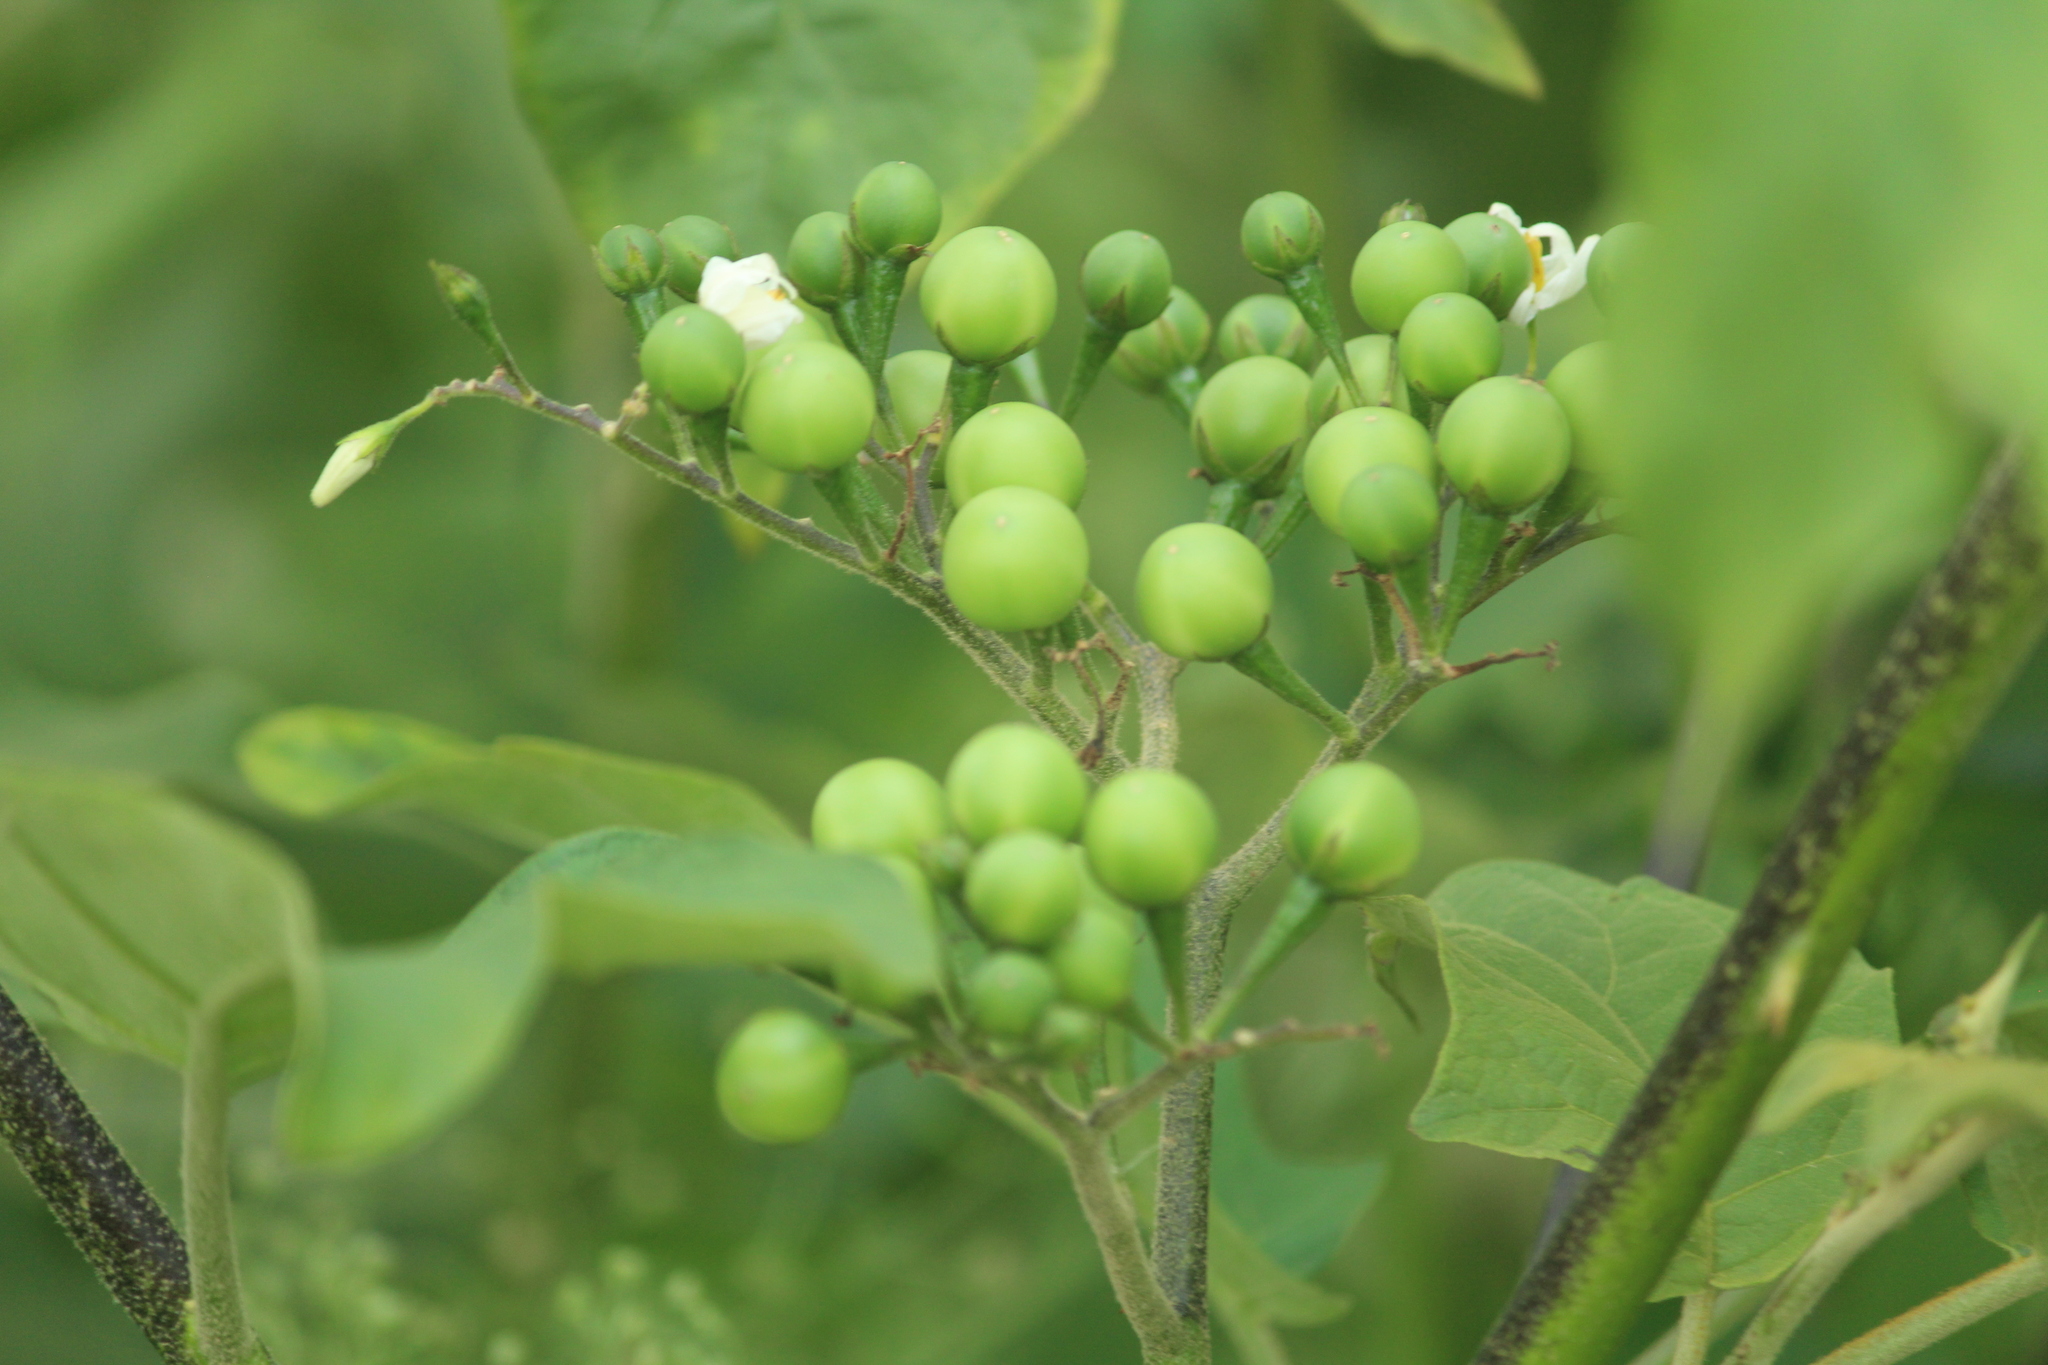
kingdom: Plantae
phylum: Tracheophyta
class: Magnoliopsida
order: Solanales
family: Solanaceae
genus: Solanum
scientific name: Solanum torvum
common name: Turkey berry
